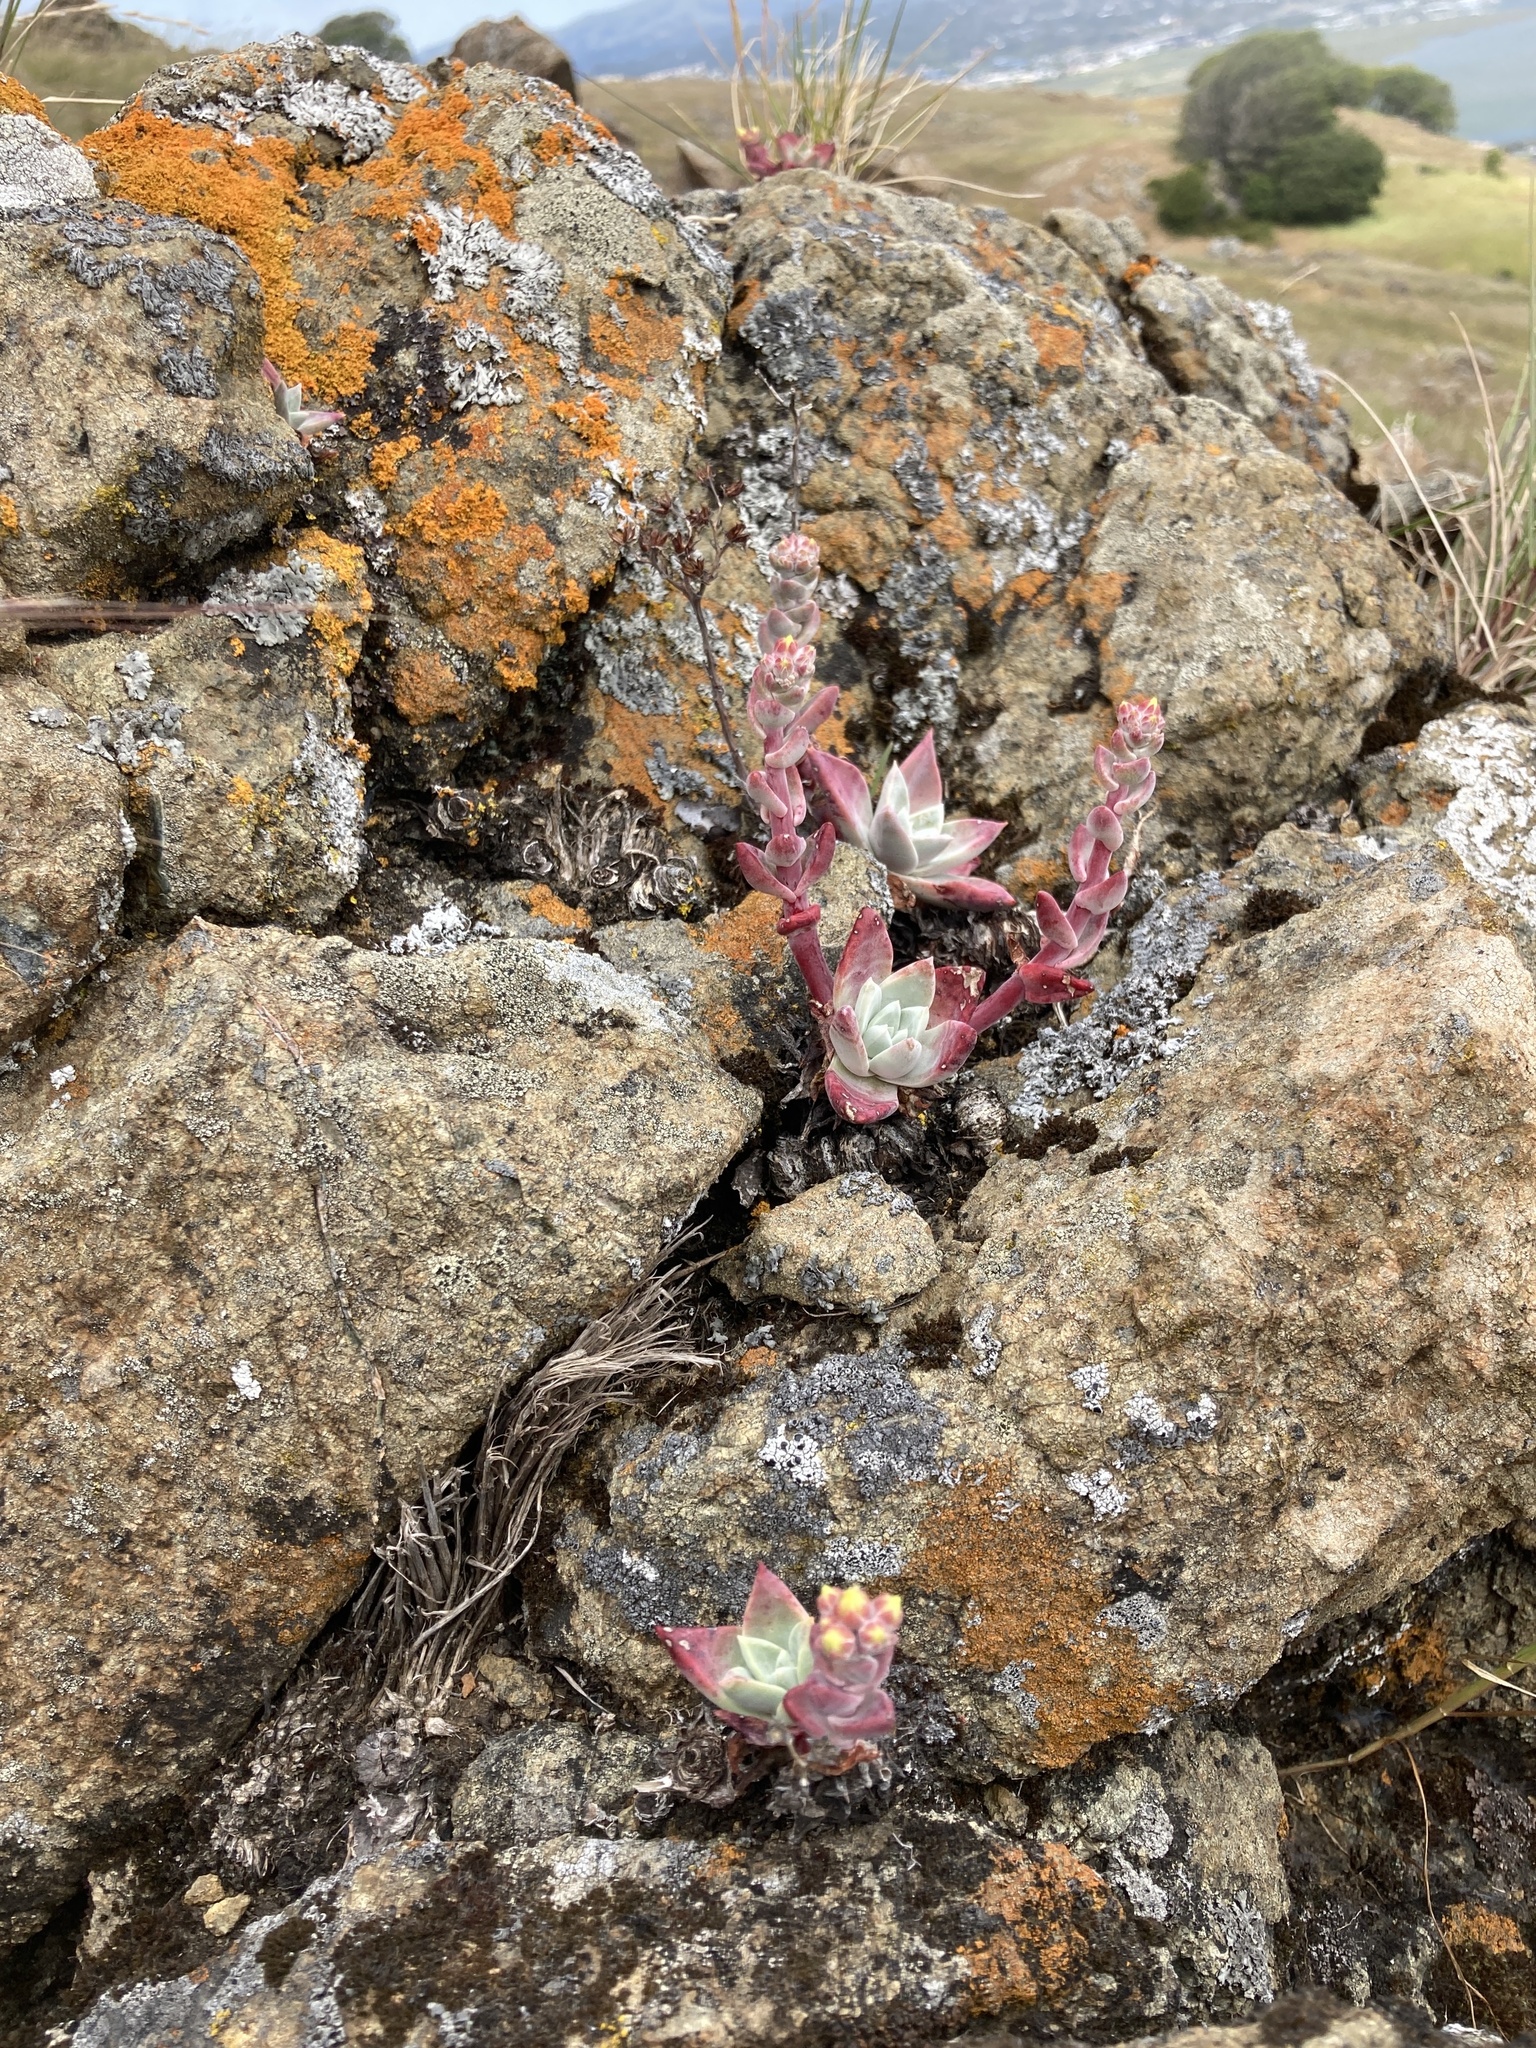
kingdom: Plantae
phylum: Tracheophyta
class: Magnoliopsida
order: Saxifragales
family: Crassulaceae
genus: Dudleya
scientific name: Dudleya farinosa
